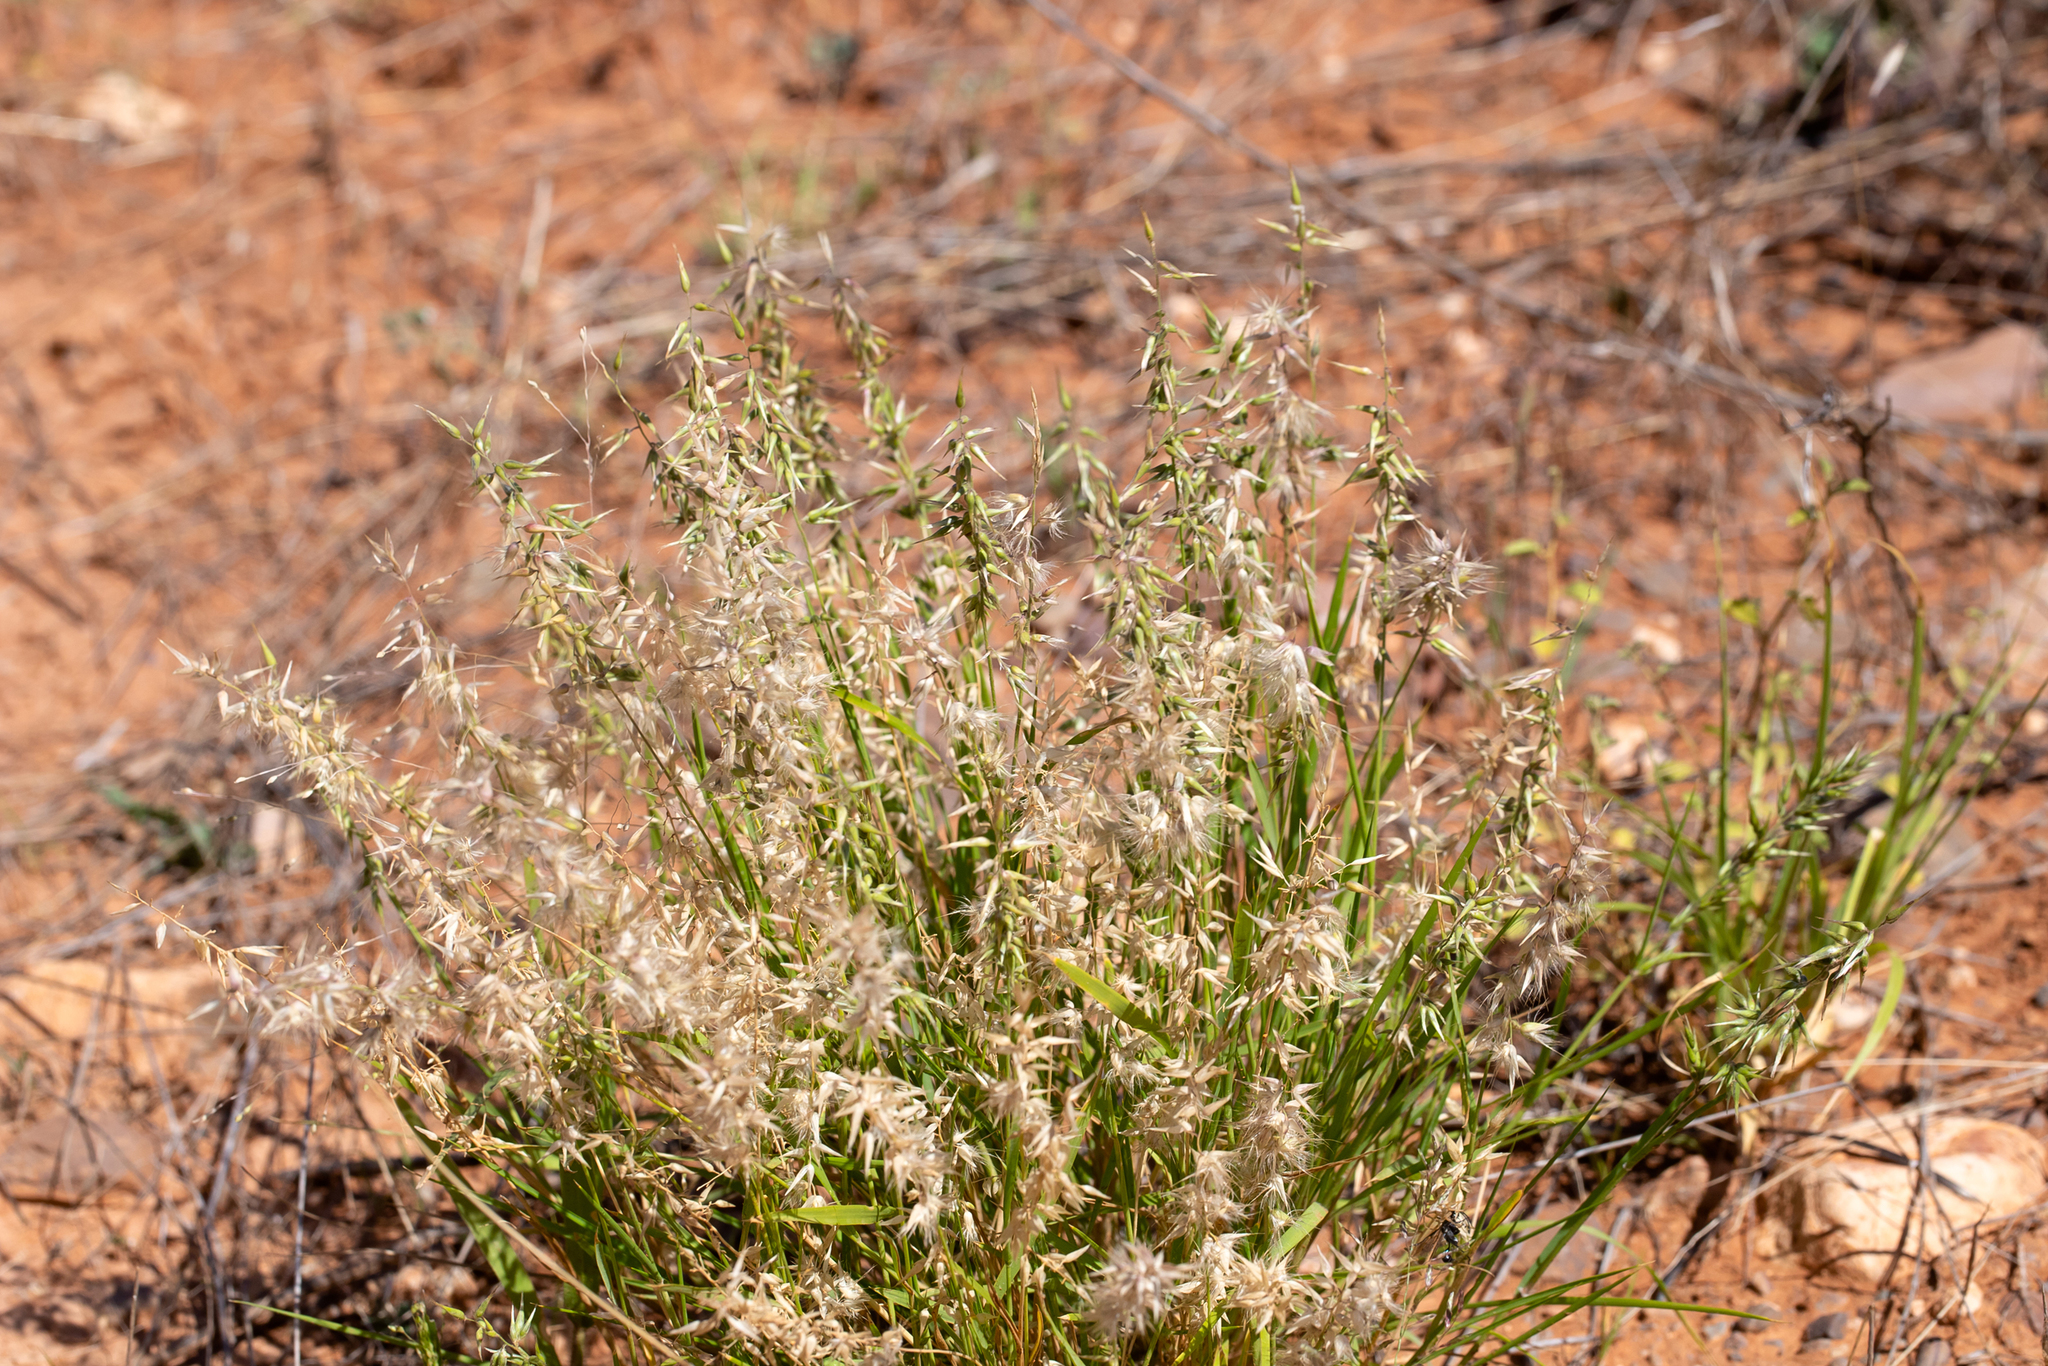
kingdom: Plantae
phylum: Tracheophyta
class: Liliopsida
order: Poales
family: Poaceae
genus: Enneapogon
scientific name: Enneapogon avenaceus
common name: Hairy oat grass
